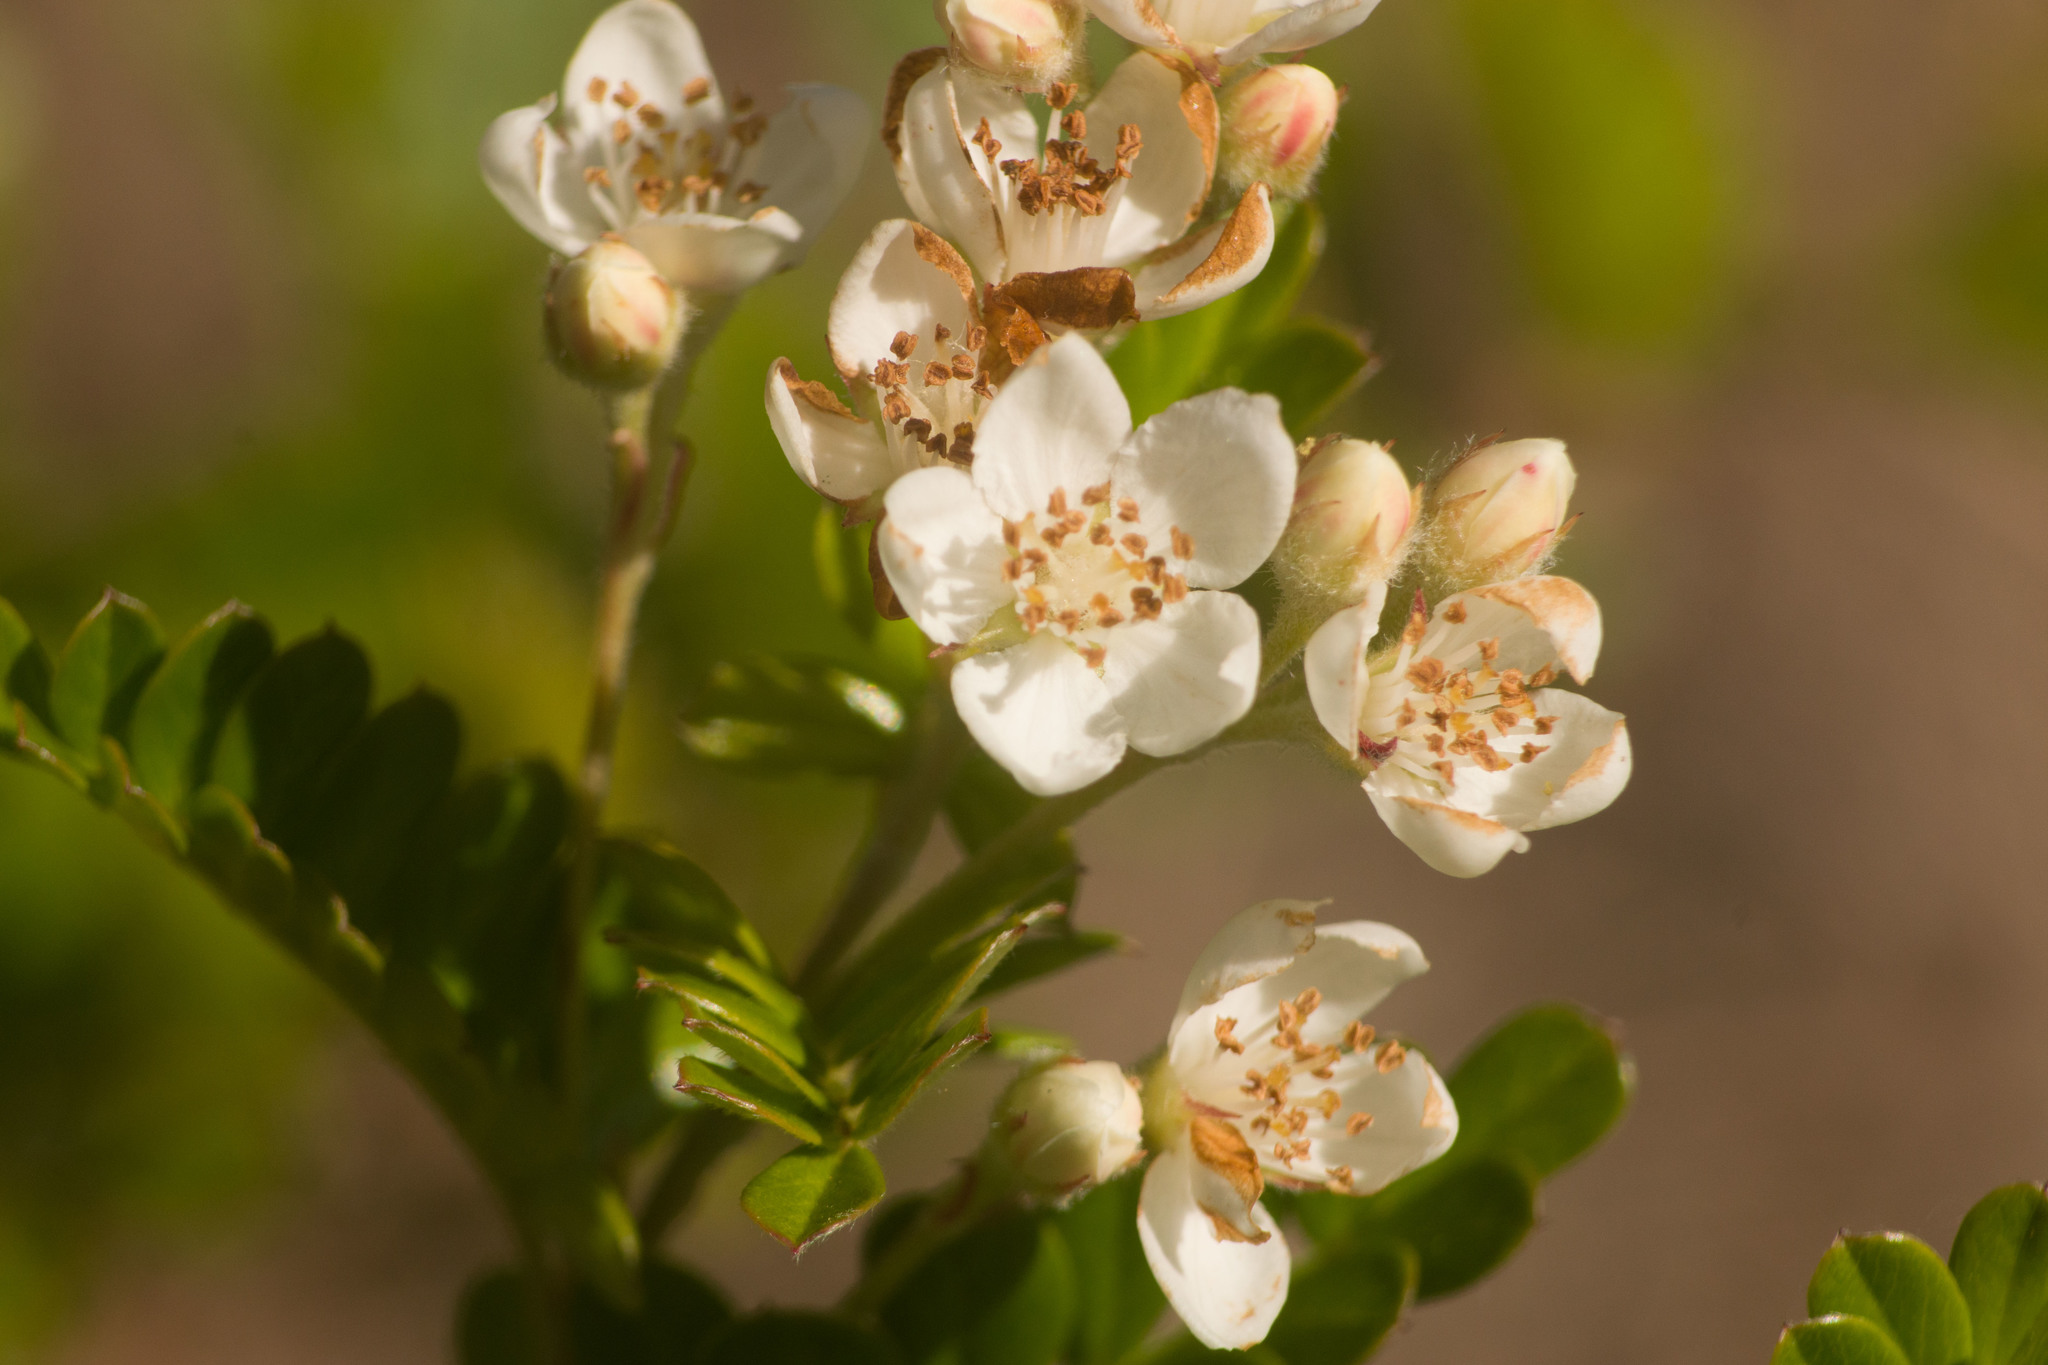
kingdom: Plantae
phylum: Tracheophyta
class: Magnoliopsida
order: Rosales
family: Rosaceae
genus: Osteomeles
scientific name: Osteomeles anthyllidifolia
